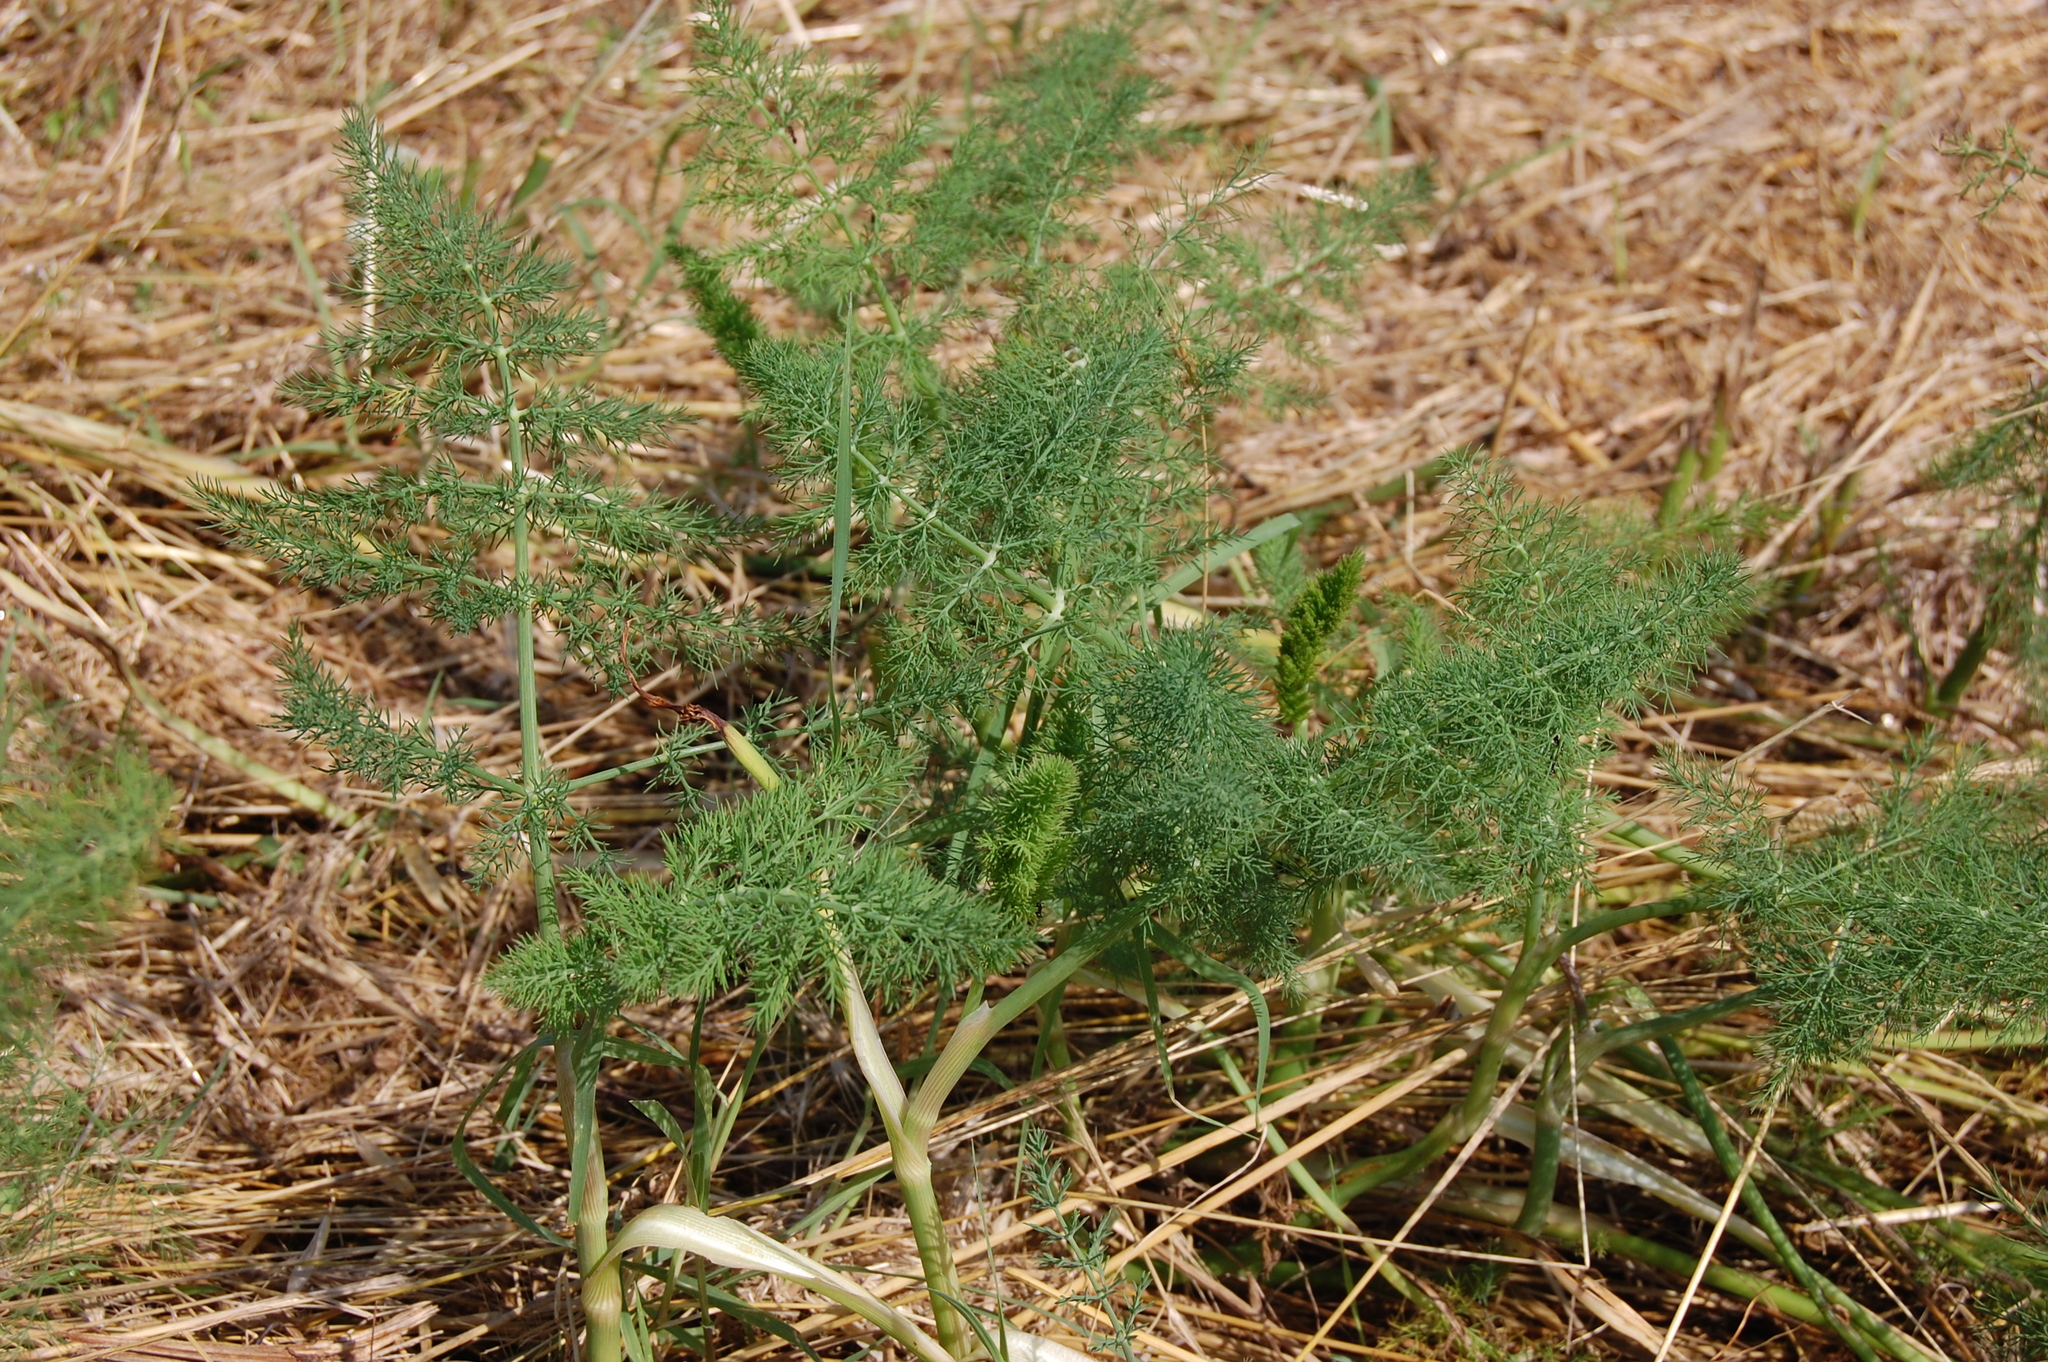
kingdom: Plantae
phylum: Tracheophyta
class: Magnoliopsida
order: Apiales
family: Apiaceae
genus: Foeniculum
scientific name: Foeniculum vulgare
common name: Fennel
